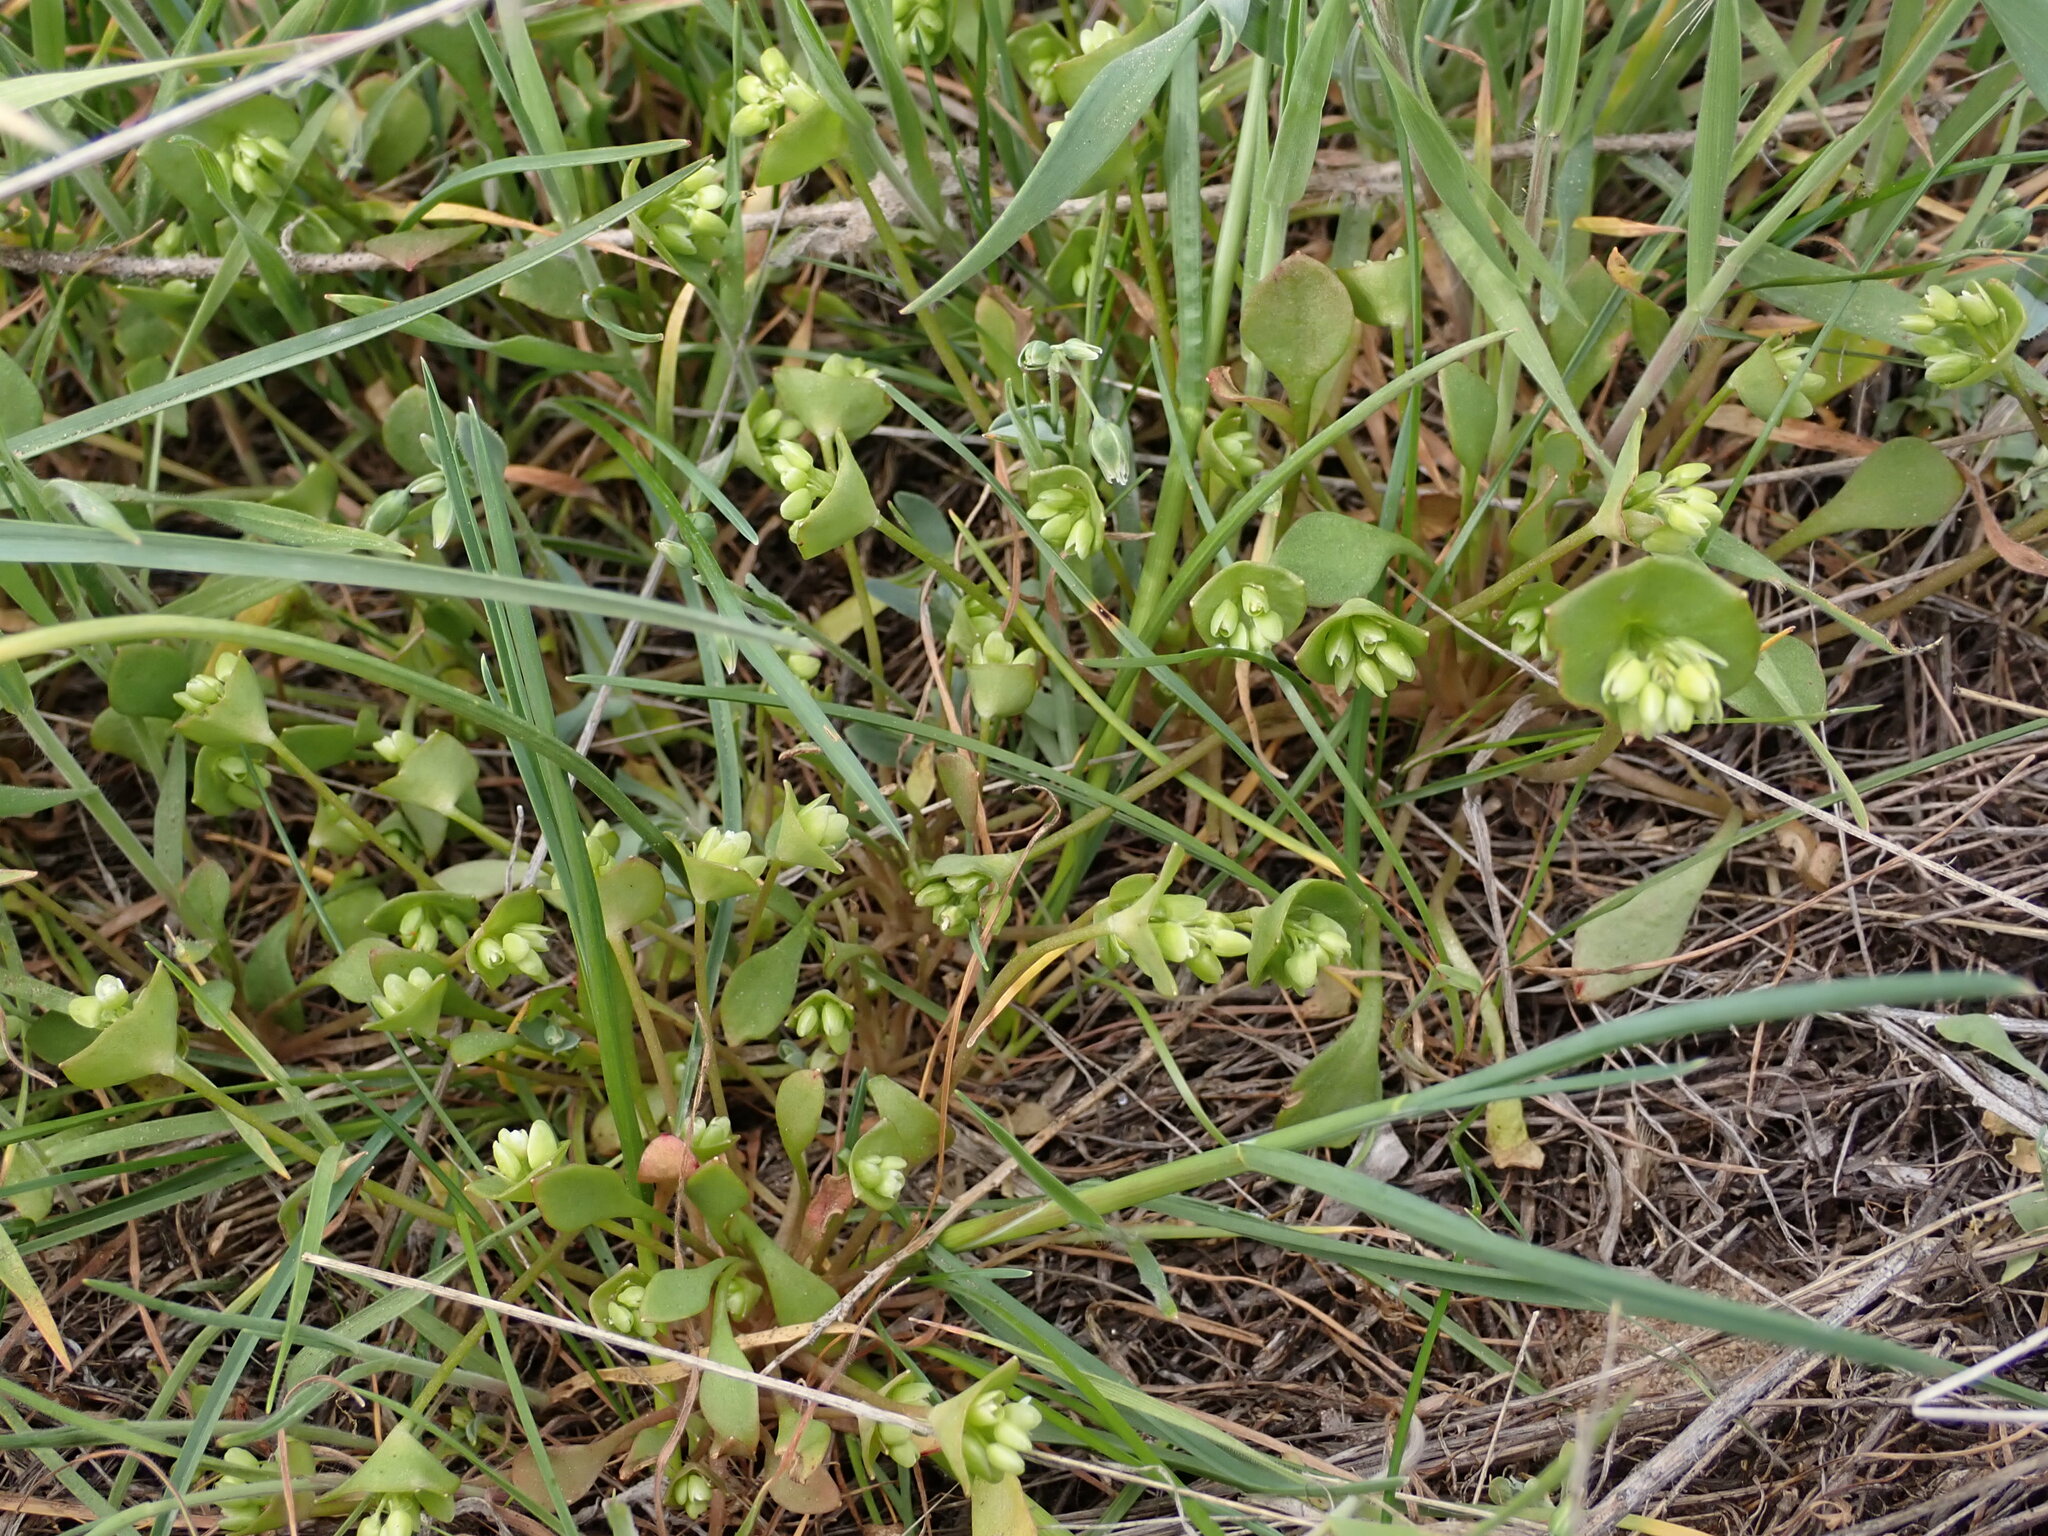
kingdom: Plantae
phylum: Tracheophyta
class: Magnoliopsida
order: Caryophyllales
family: Montiaceae
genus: Claytonia
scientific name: Claytonia rubra
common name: Erubescent miner's-lettuce
